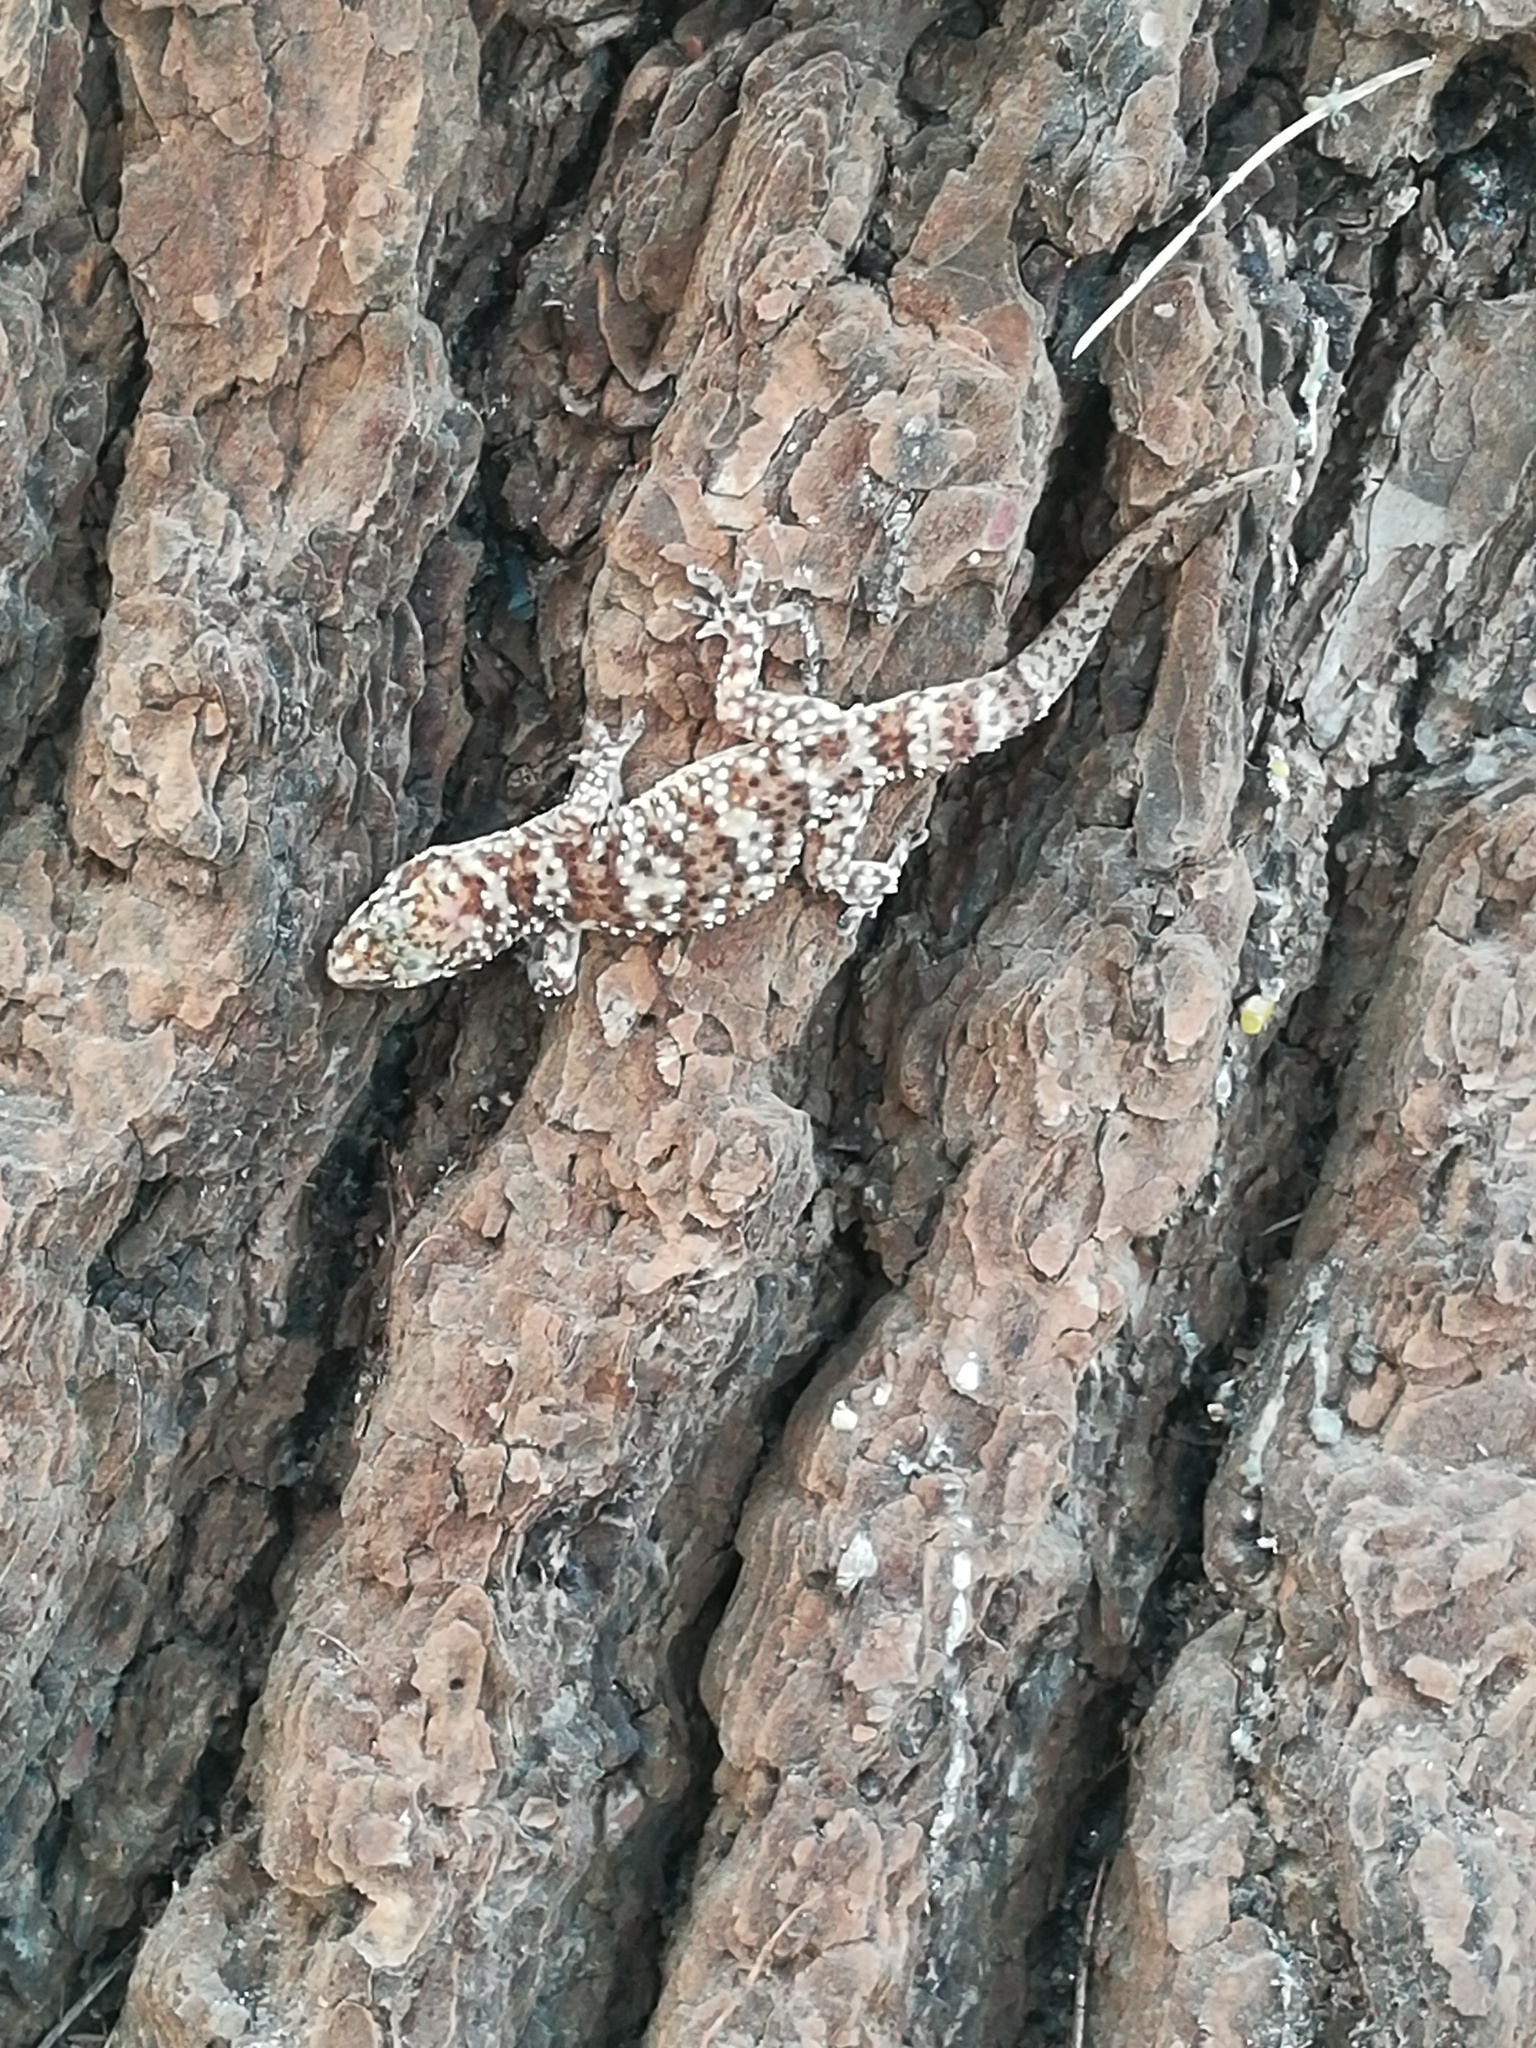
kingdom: Animalia
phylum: Chordata
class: Squamata
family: Gekkonidae
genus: Hemidactylus
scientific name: Hemidactylus turcicus
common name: Turkish gecko
